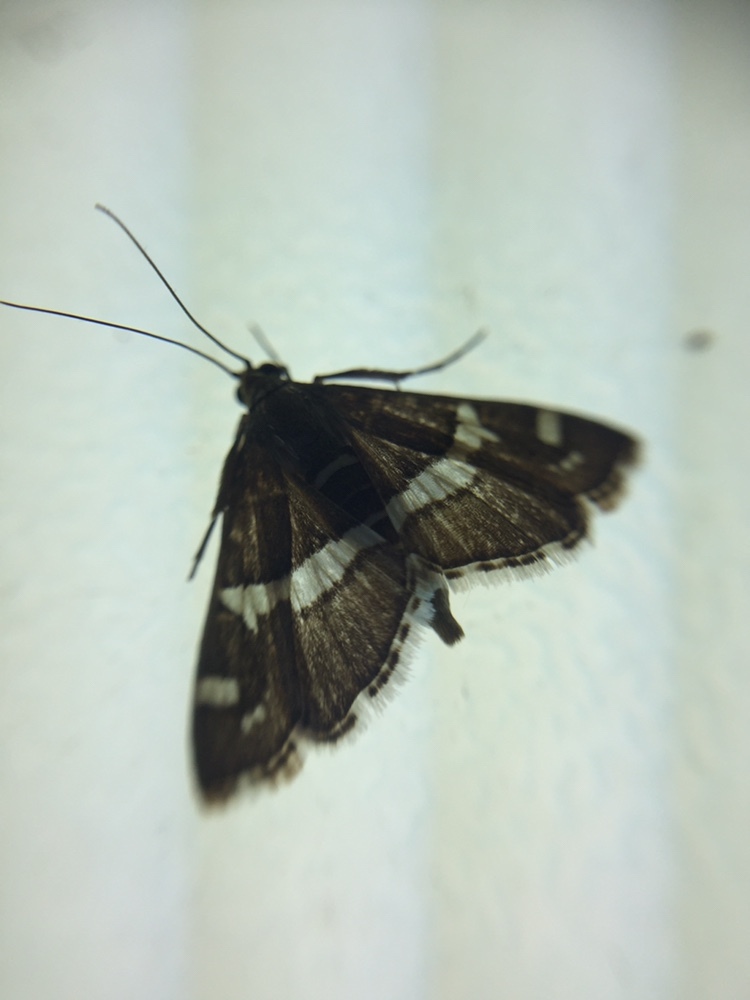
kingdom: Animalia
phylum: Arthropoda
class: Insecta
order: Lepidoptera
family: Crambidae
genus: Spoladea
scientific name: Spoladea recurvalis
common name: Beet webworm moth
